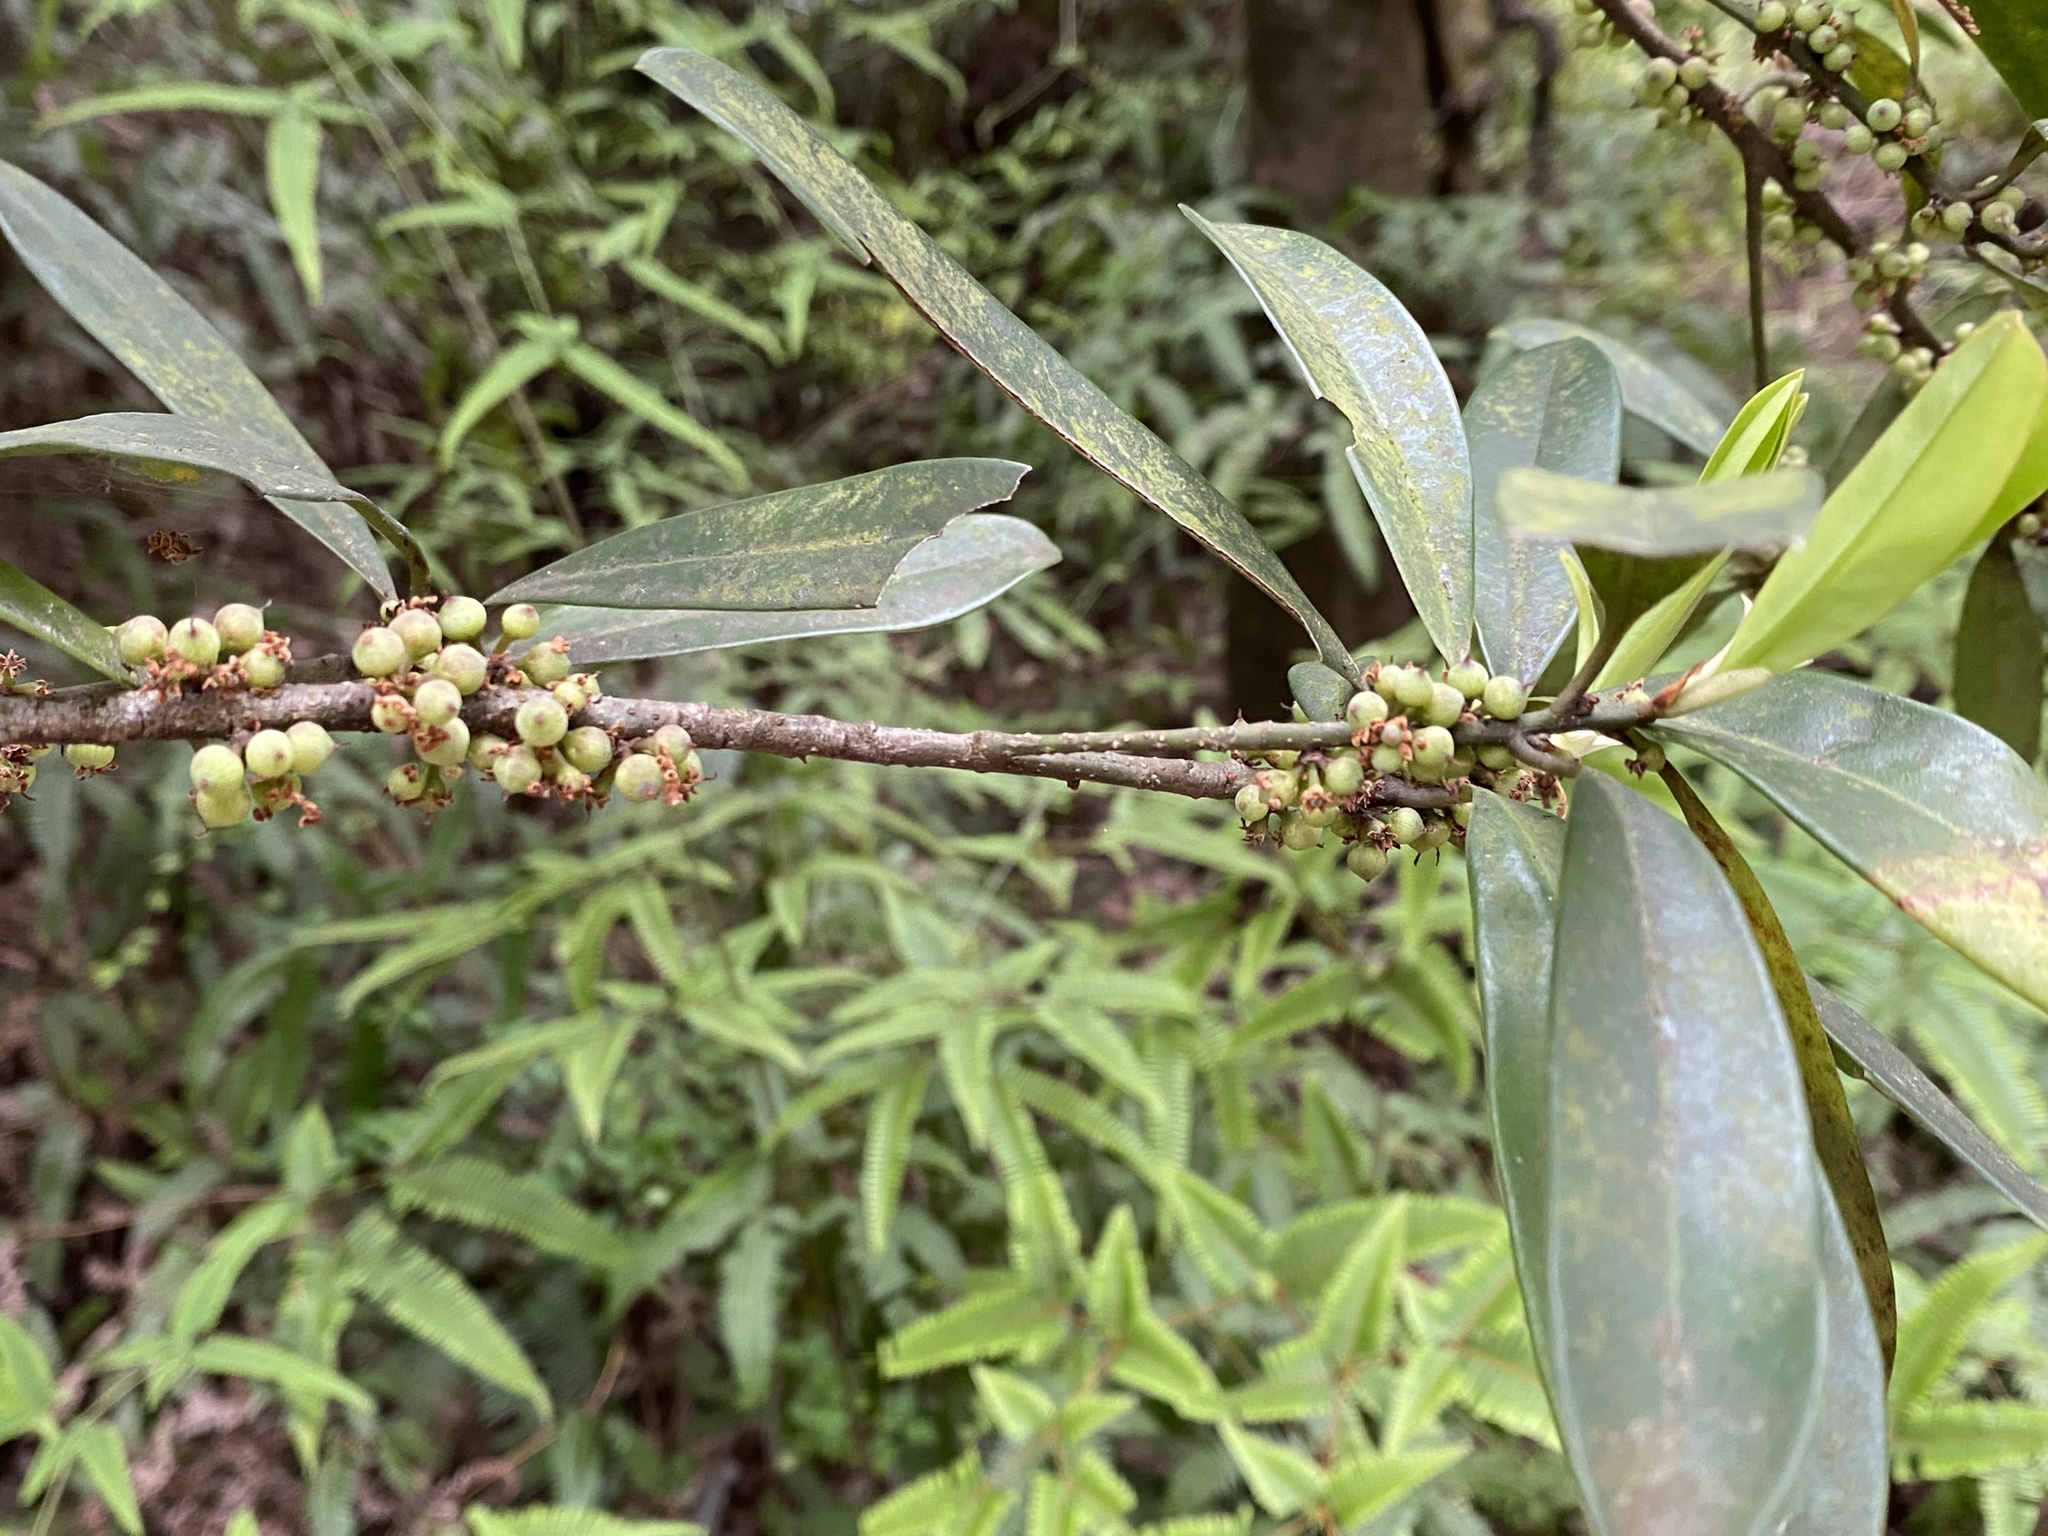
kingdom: Plantae
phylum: Tracheophyta
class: Magnoliopsida
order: Ericales
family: Primulaceae
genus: Myrsine
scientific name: Myrsine seguinii
